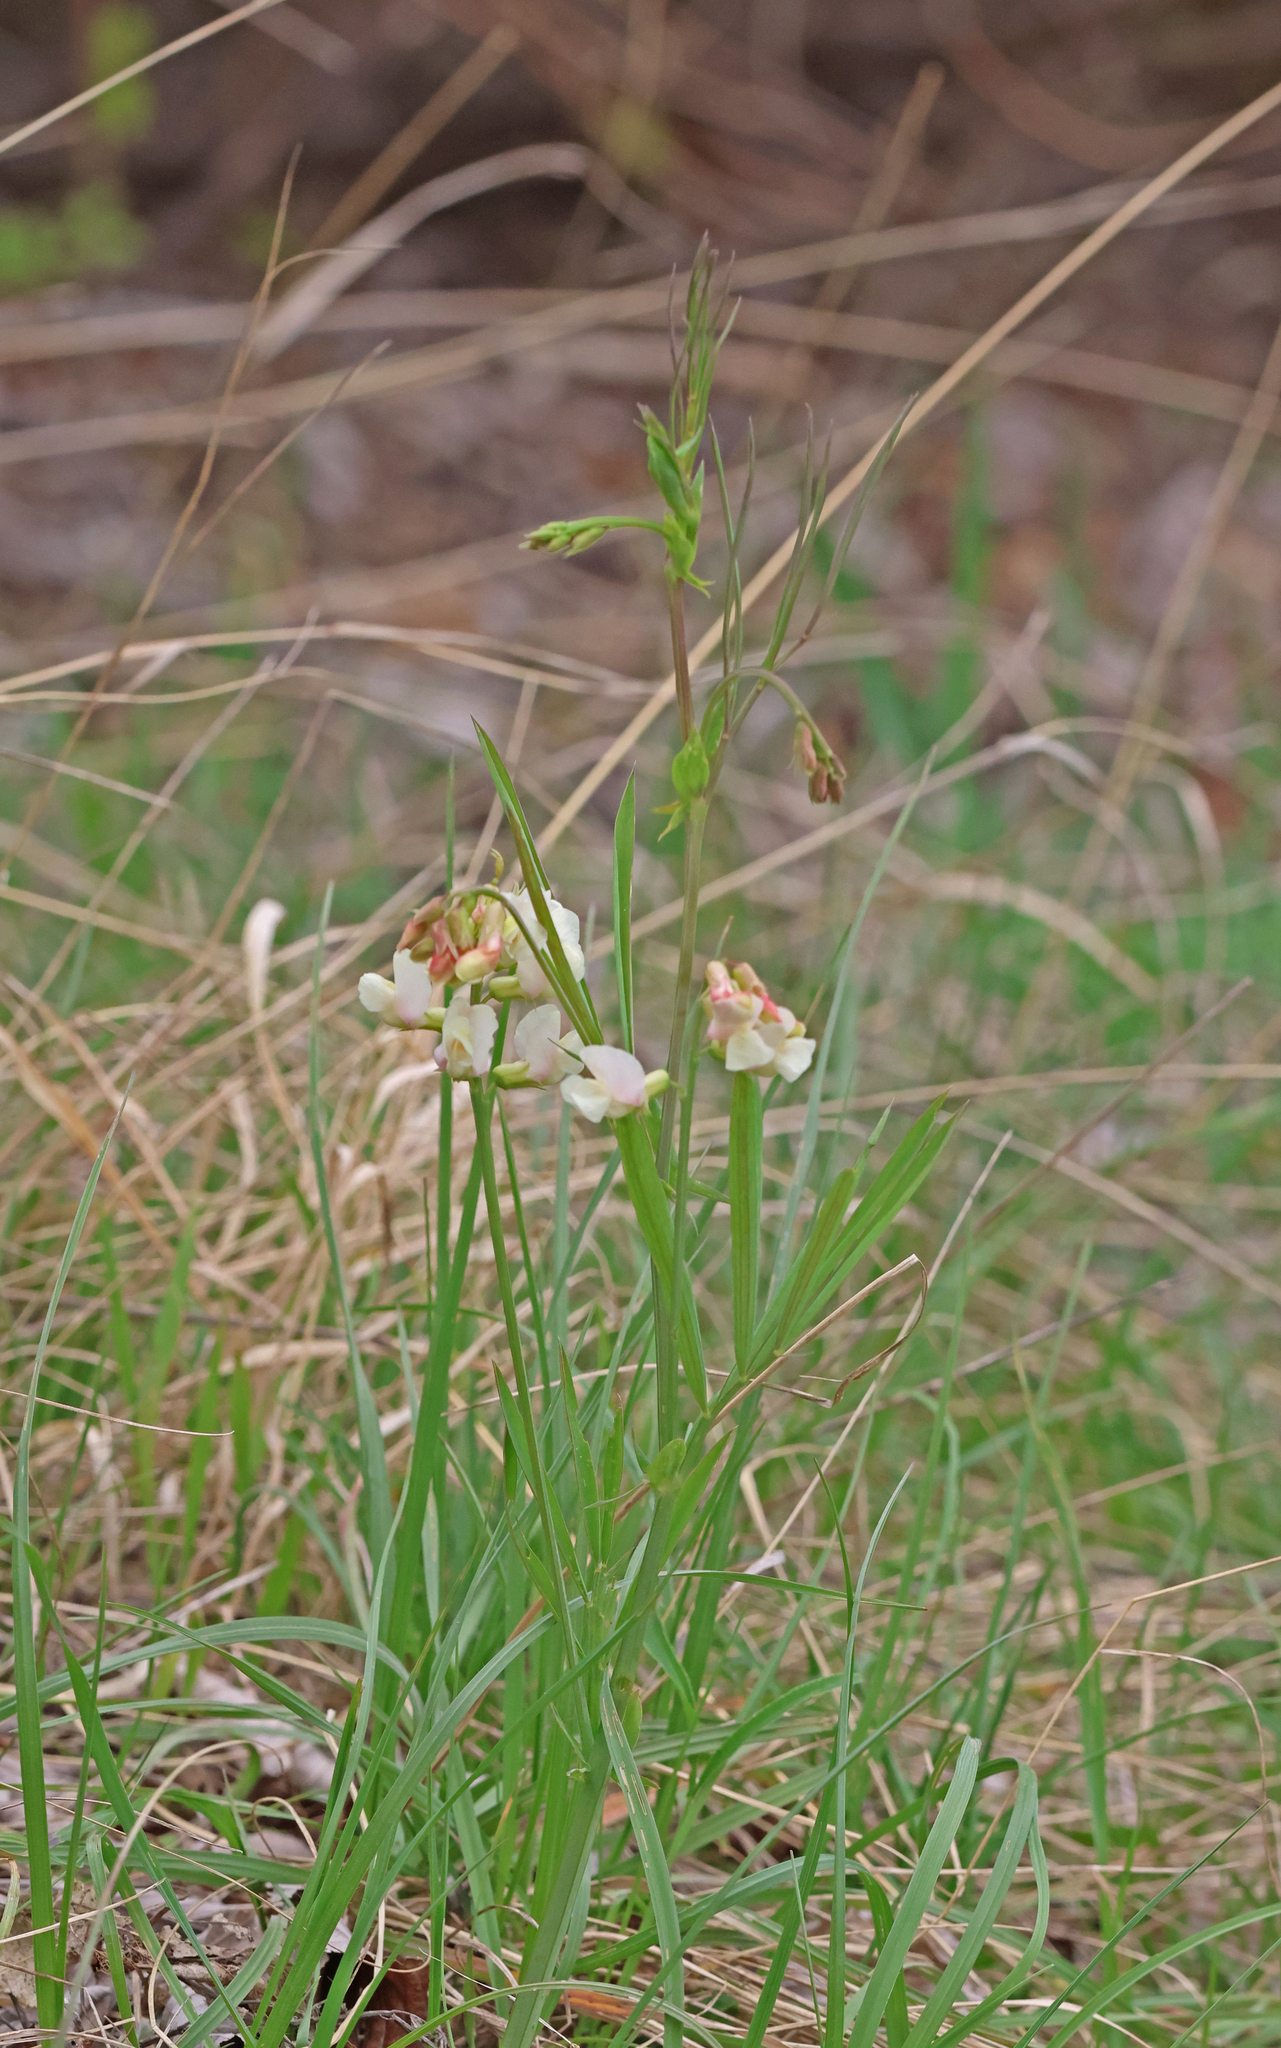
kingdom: Plantae
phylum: Tracheophyta
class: Magnoliopsida
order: Fabales
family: Fabaceae
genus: Lathyrus
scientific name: Lathyrus pannonicus
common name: Pea
